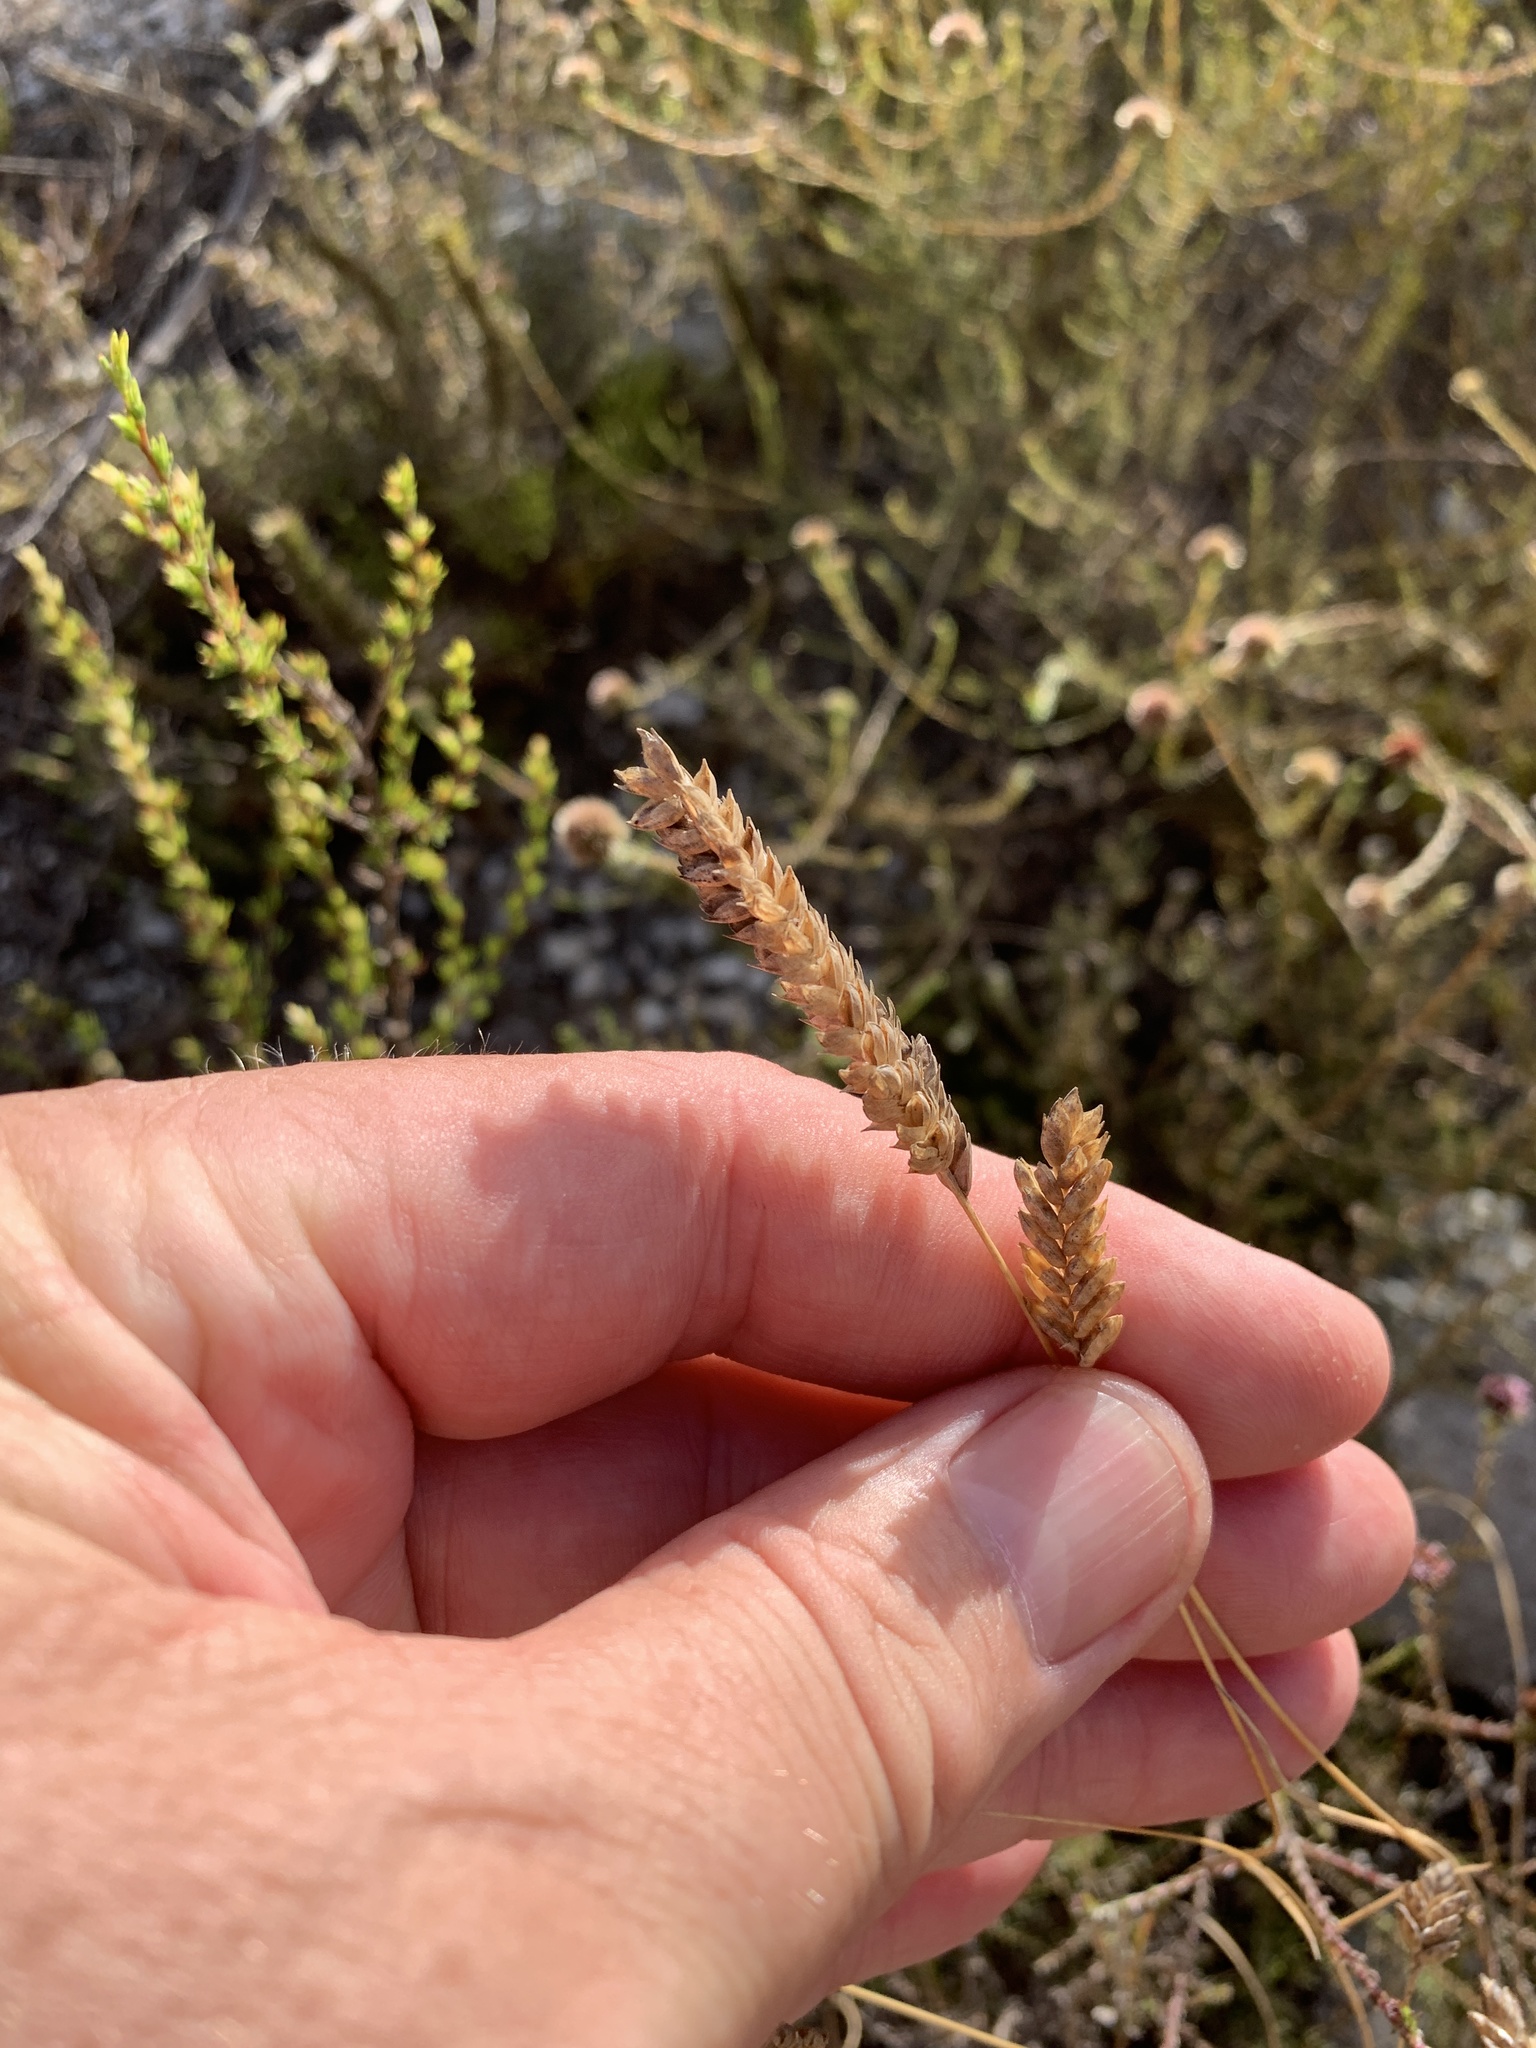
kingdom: Plantae
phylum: Tracheophyta
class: Liliopsida
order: Poales
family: Poaceae
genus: Tribolium
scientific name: Tribolium uniolae
